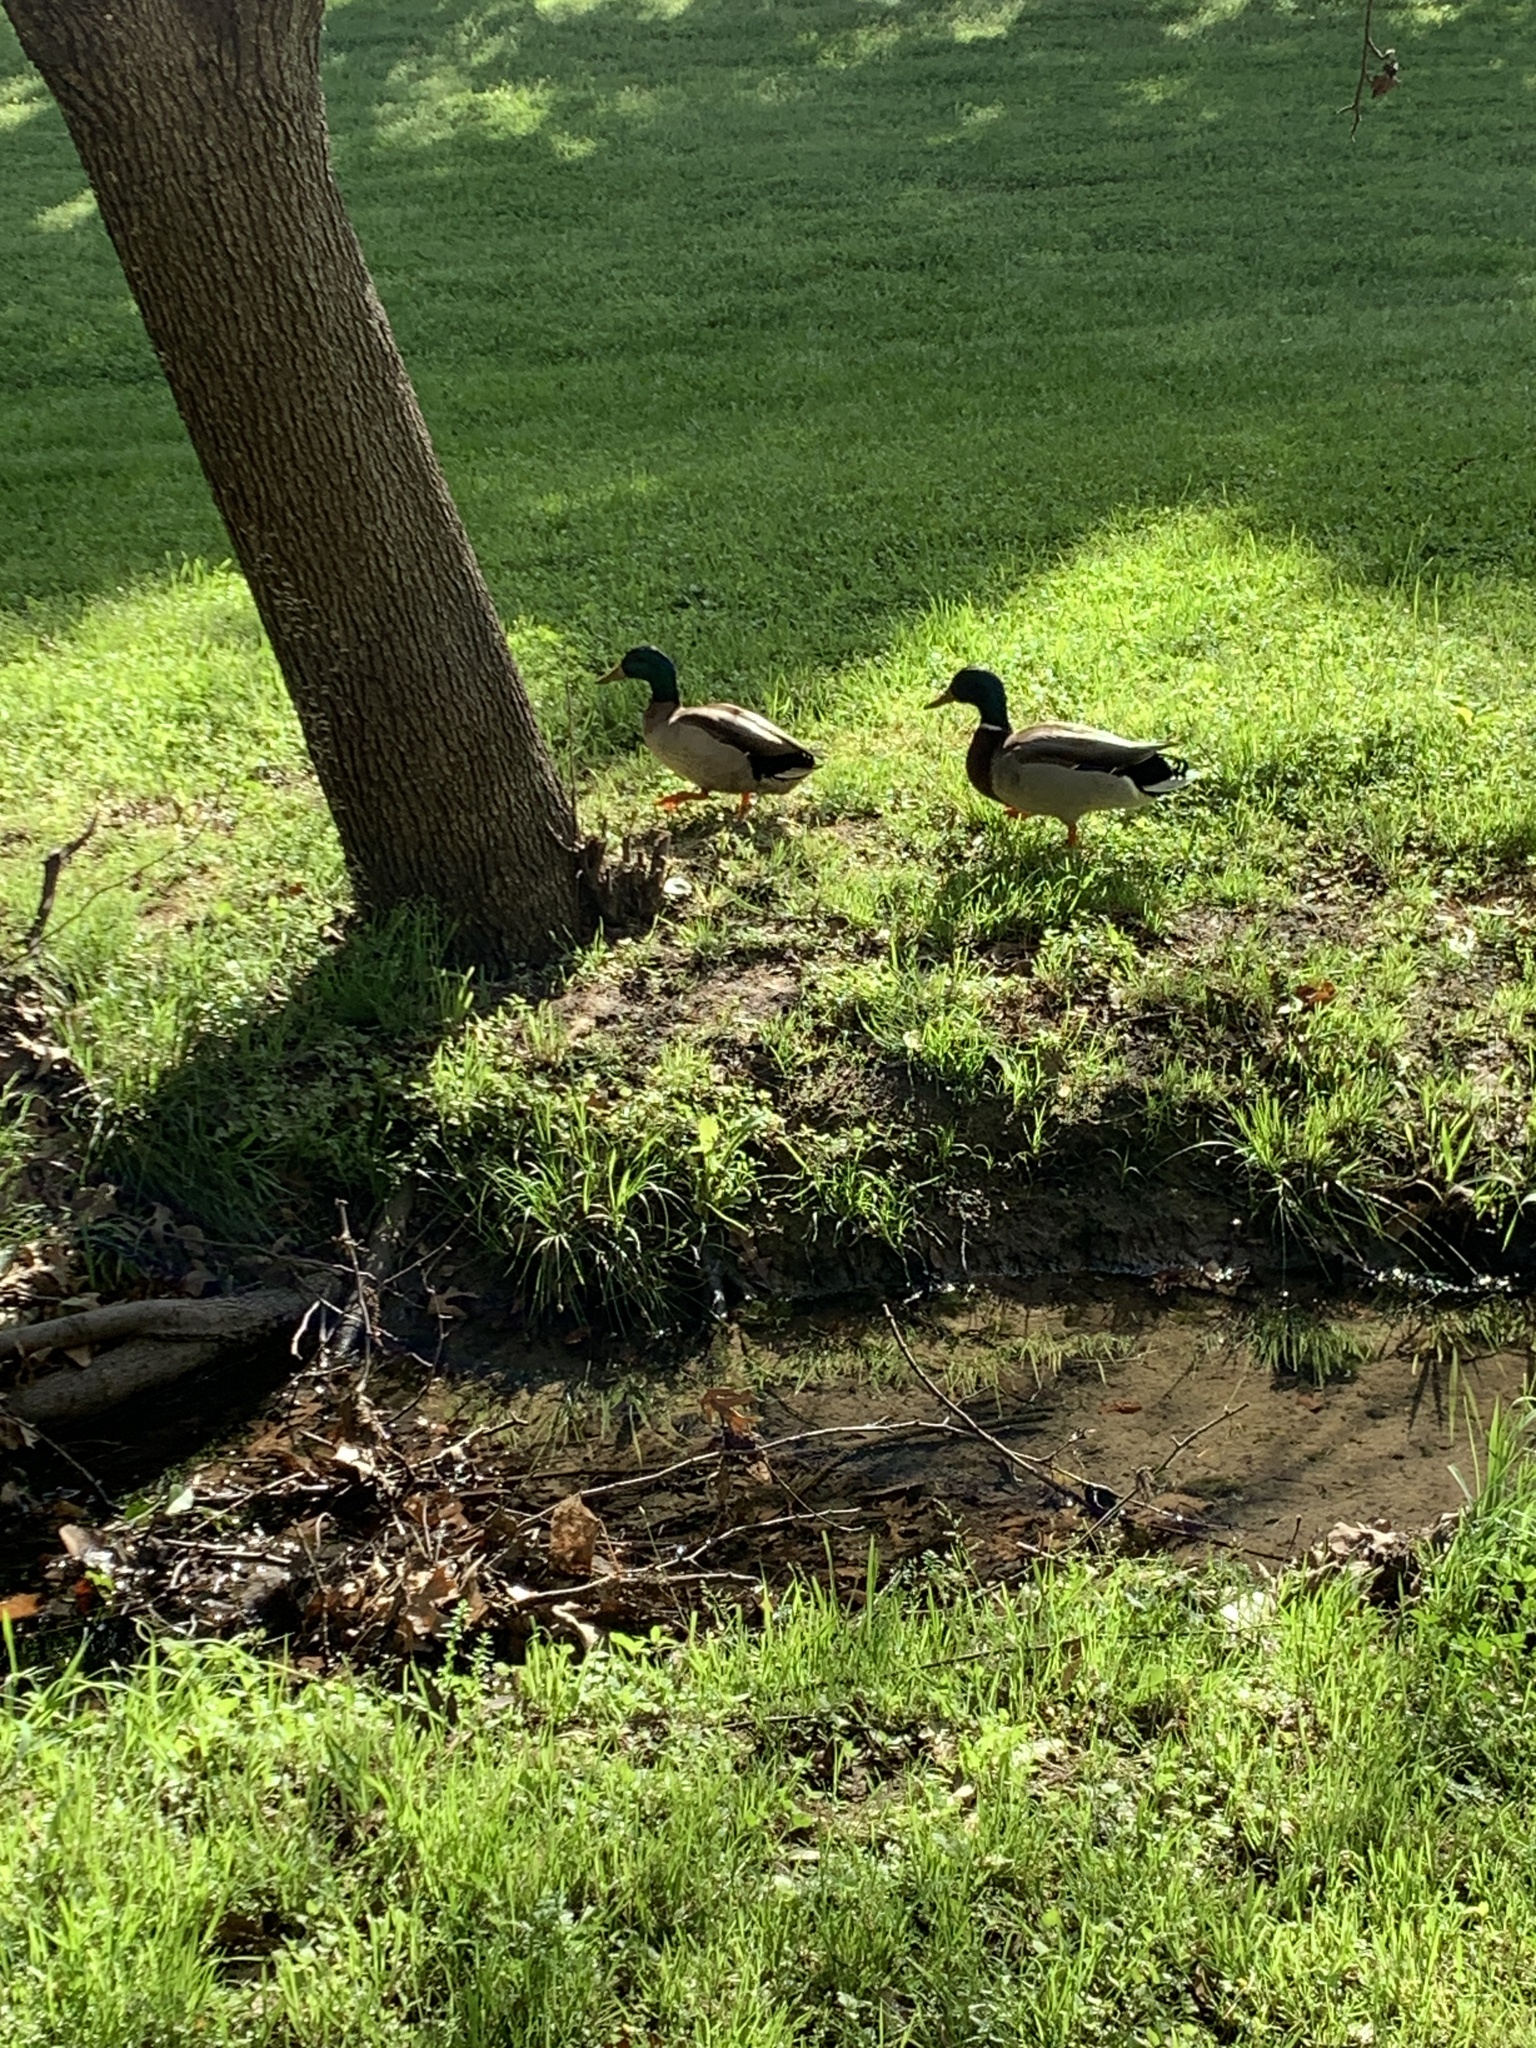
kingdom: Animalia
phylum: Chordata
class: Aves
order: Anseriformes
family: Anatidae
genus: Anas
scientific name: Anas platyrhynchos
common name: Mallard
